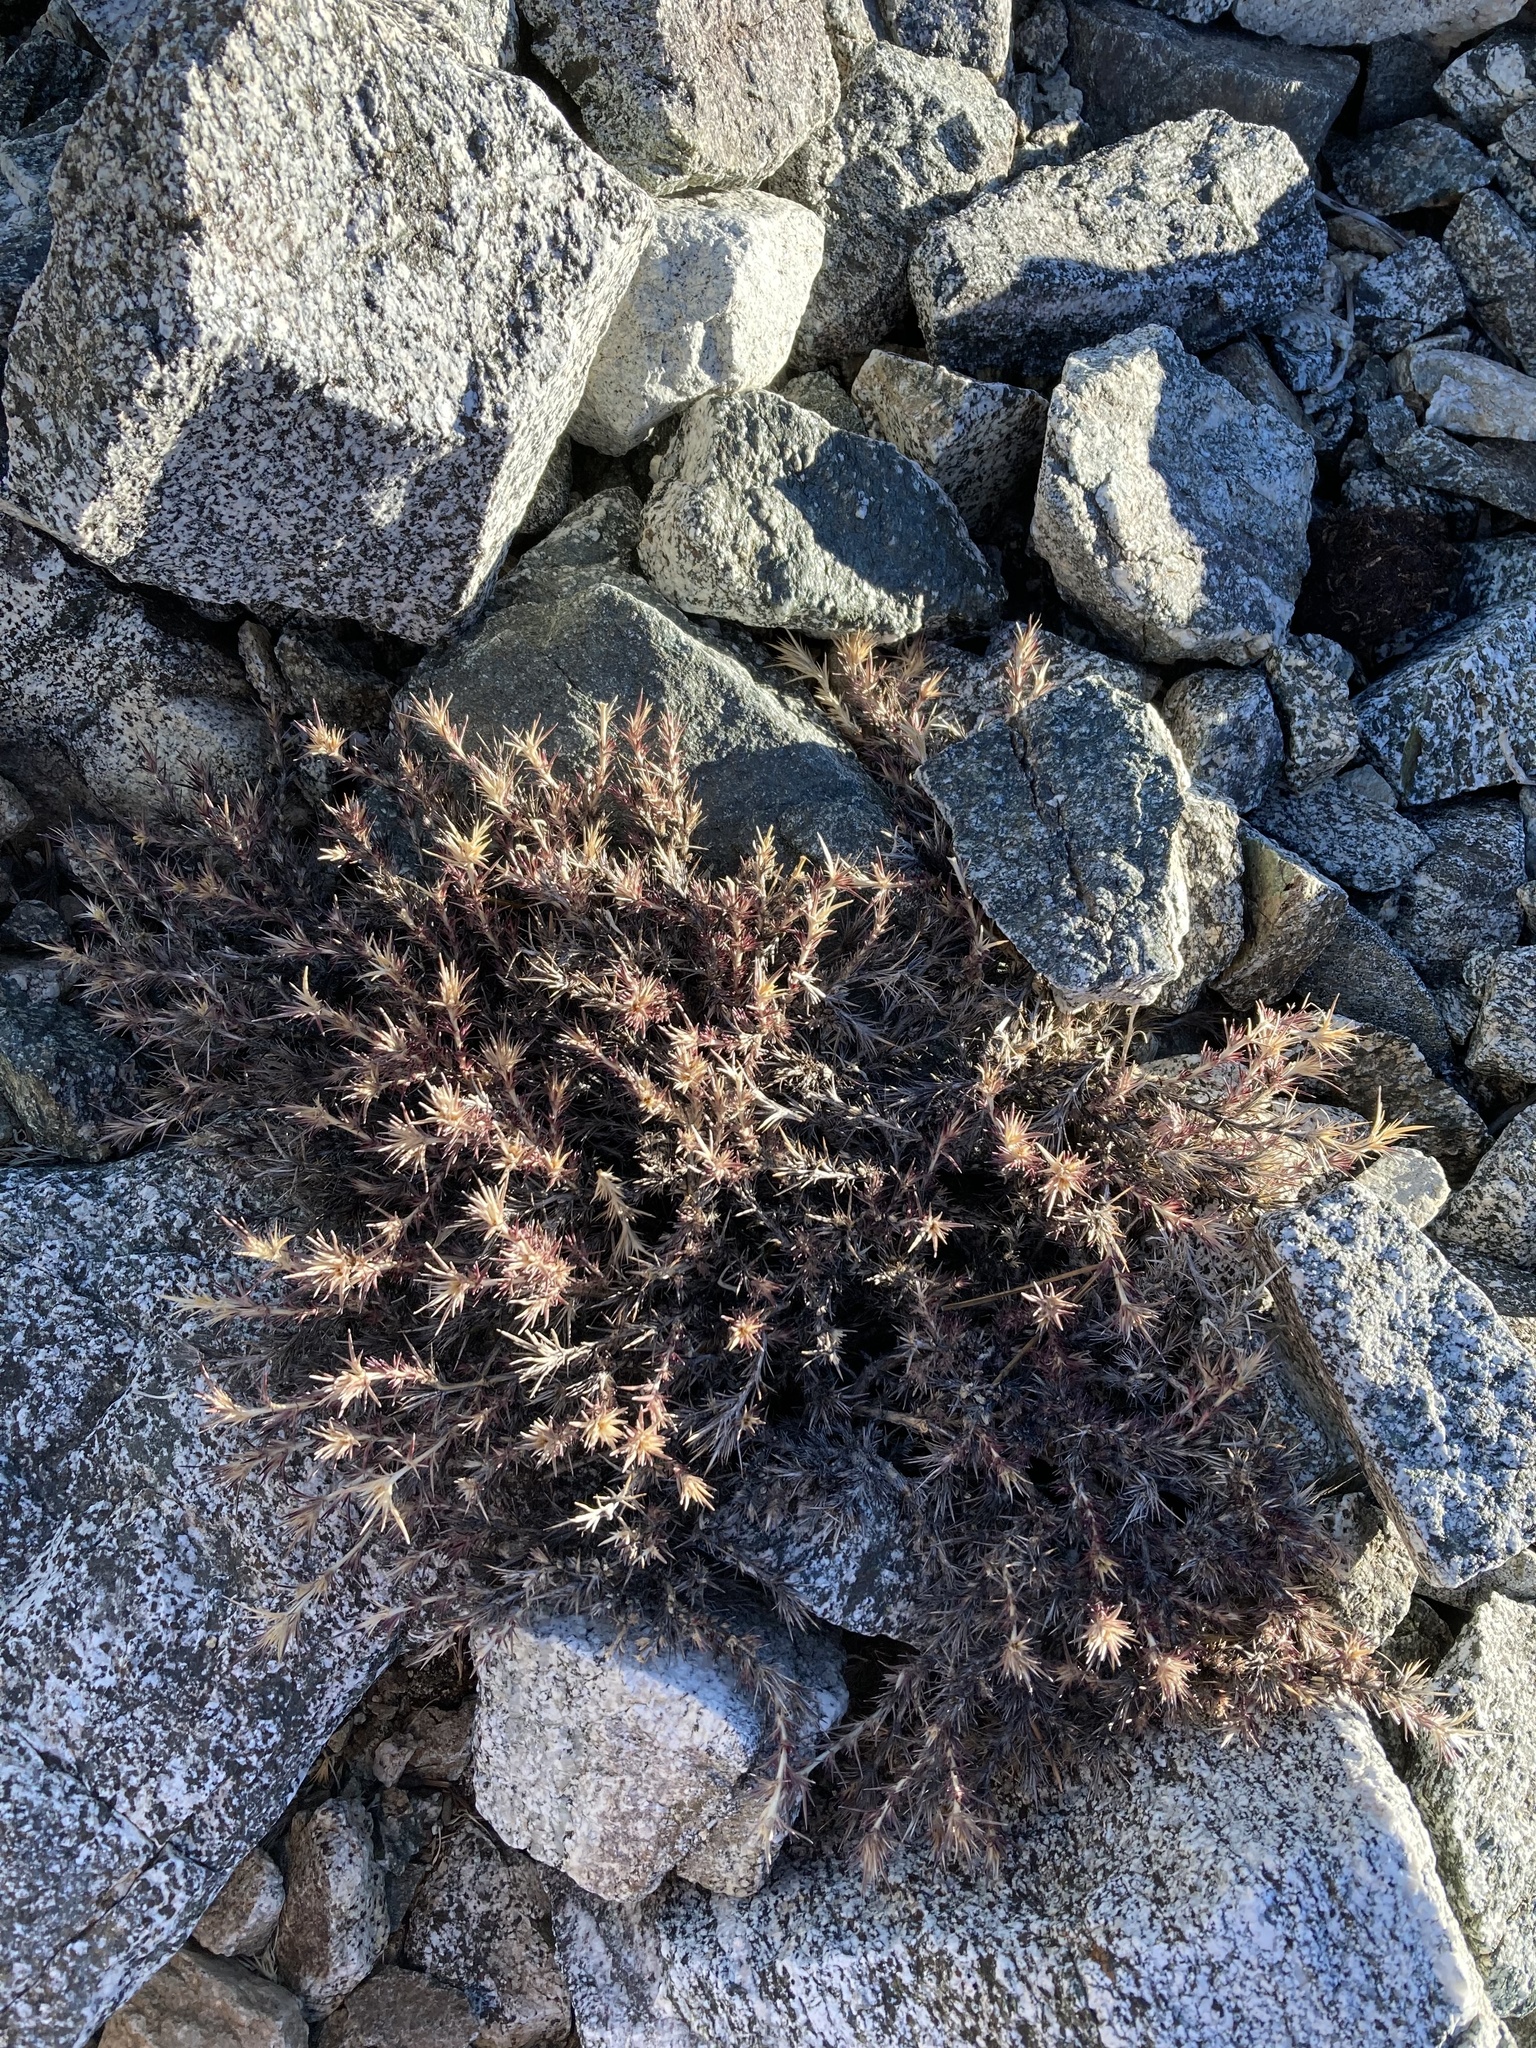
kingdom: Plantae
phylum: Tracheophyta
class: Magnoliopsida
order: Ericales
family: Polemoniaceae
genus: Linanthus
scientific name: Linanthus pungens
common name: Granite prickly phlox
